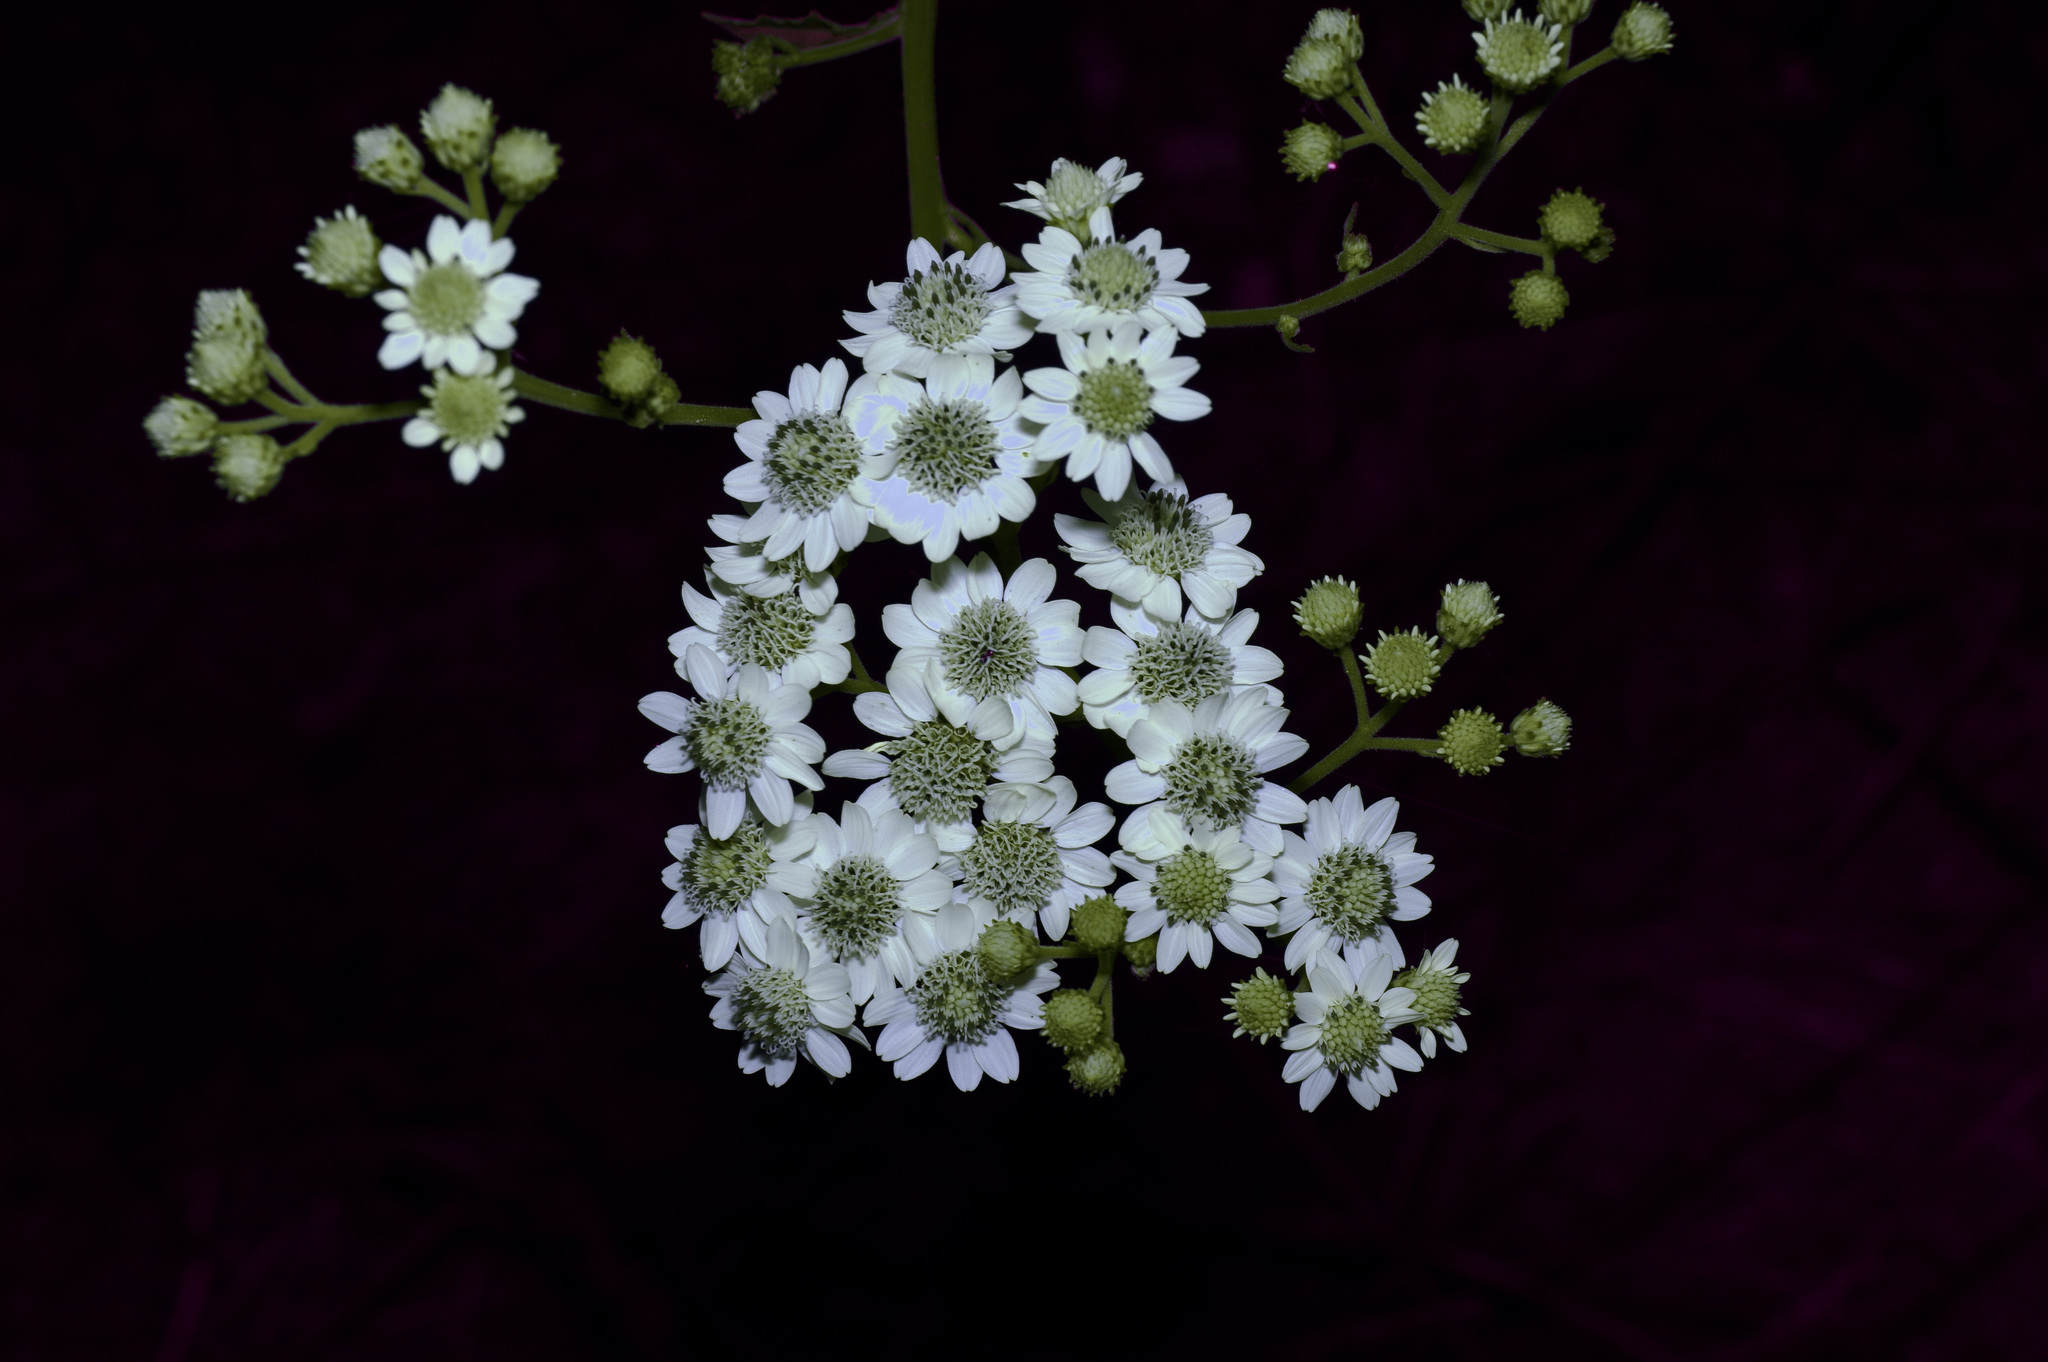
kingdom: Plantae
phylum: Tracheophyta
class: Magnoliopsida
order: Asterales
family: Asteraceae
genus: Verbesina
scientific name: Verbesina microptera
